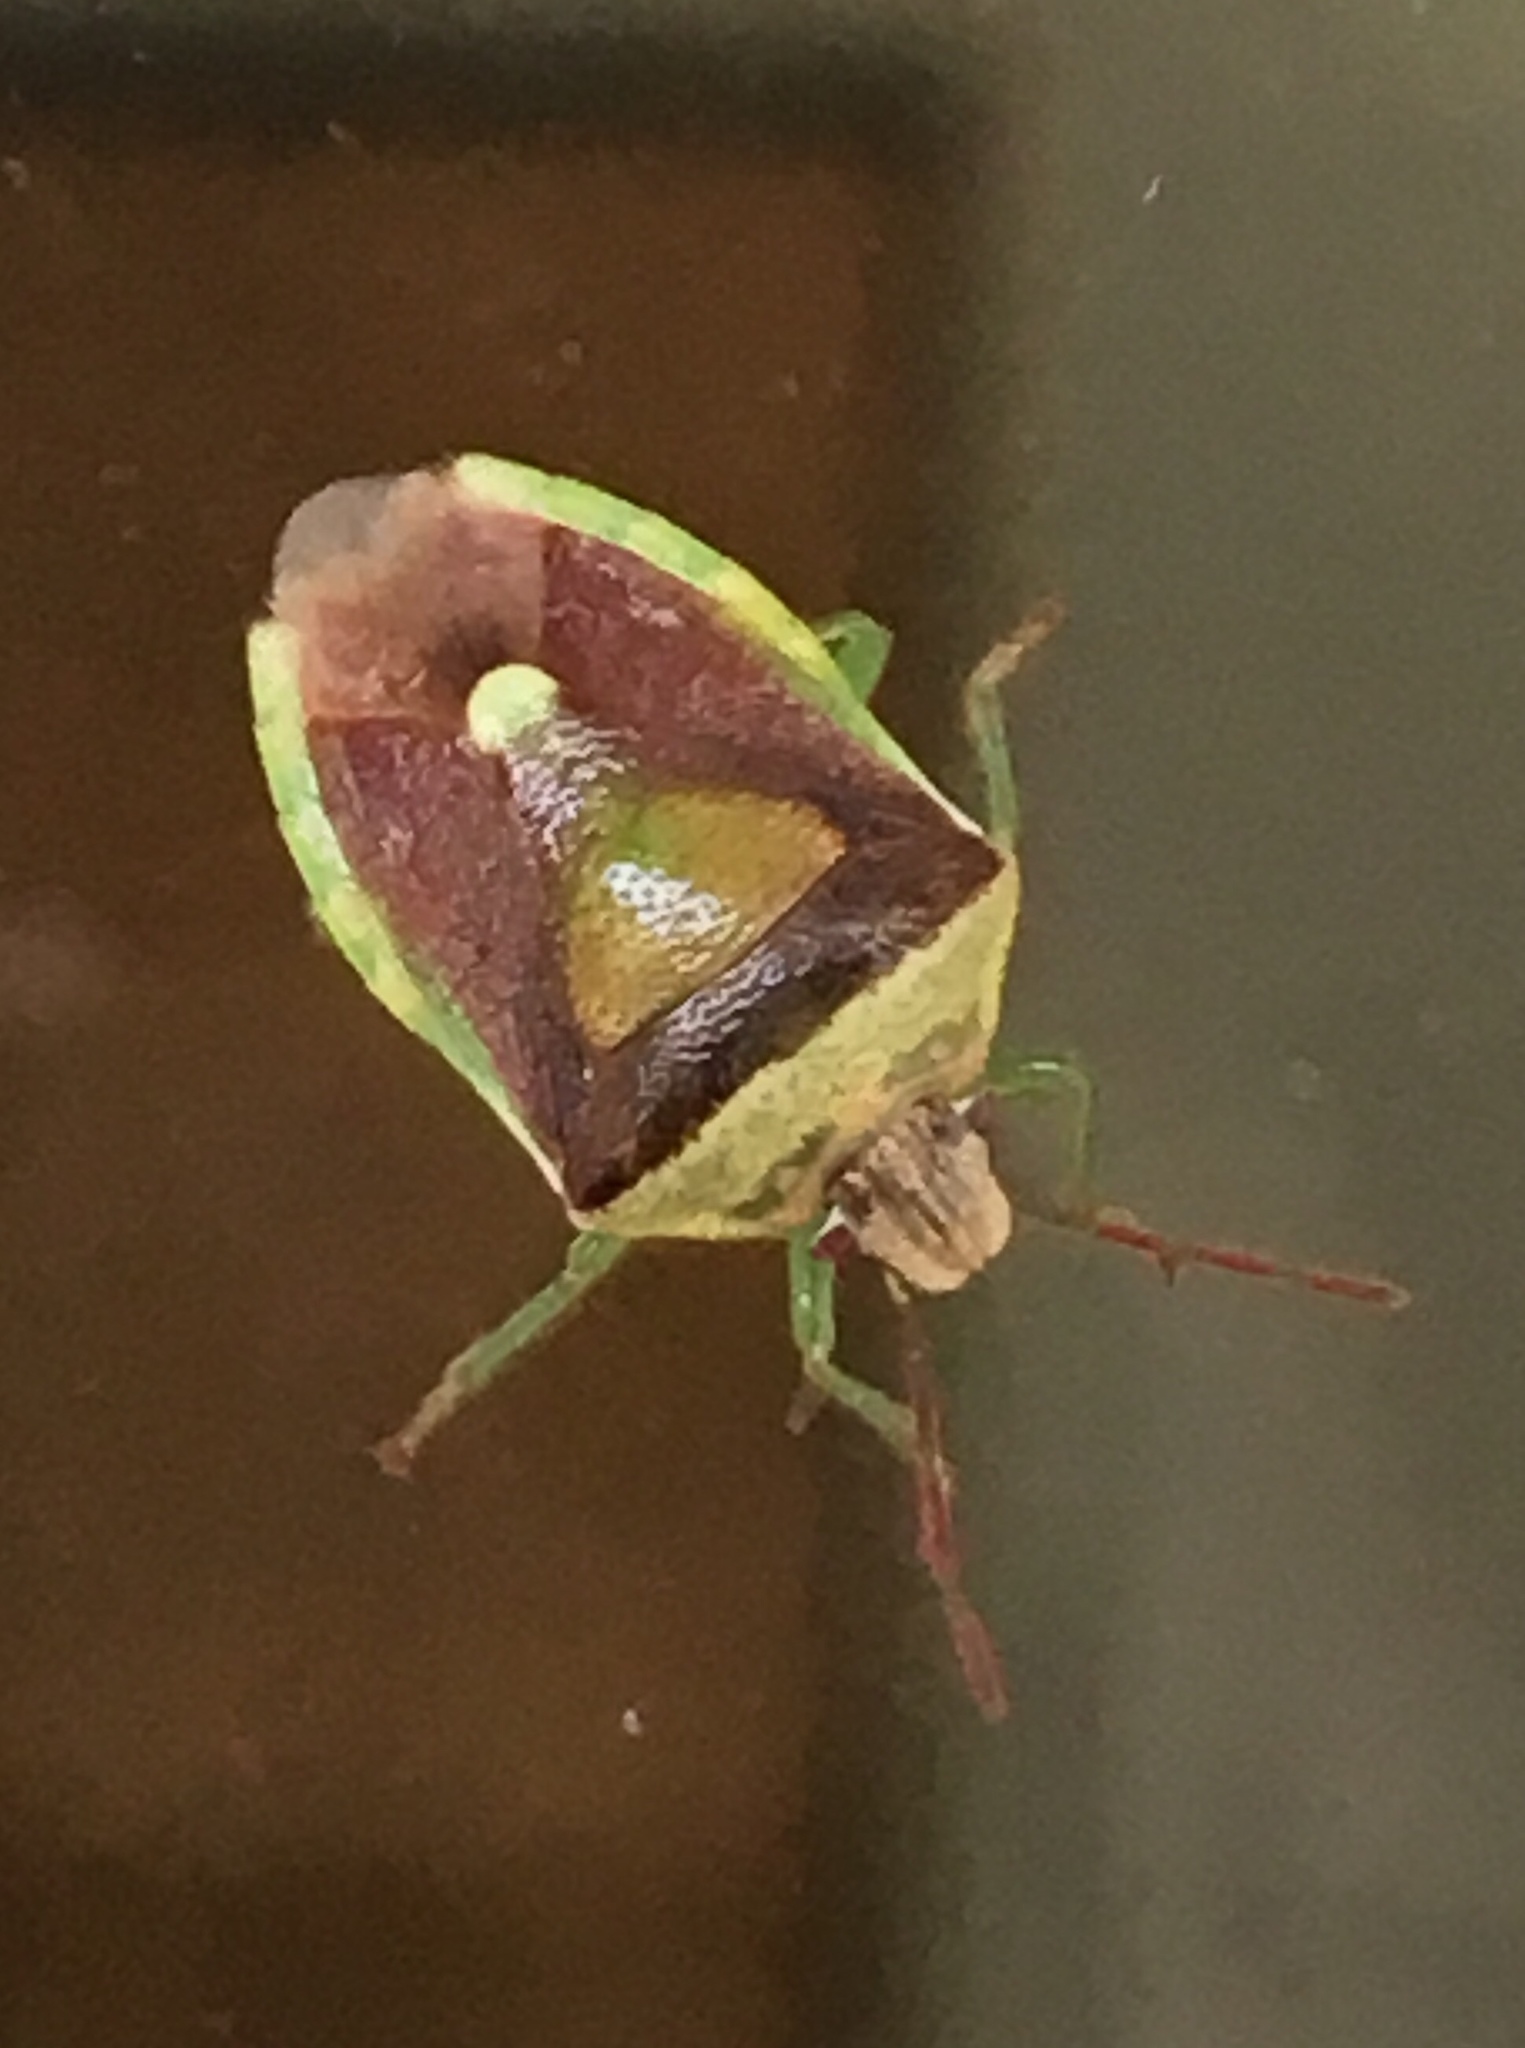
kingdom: Animalia
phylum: Arthropoda
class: Insecta
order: Hemiptera
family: Pentatomidae
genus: Banasa
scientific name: Banasa dimidiata
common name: Green burgundy stink bug
